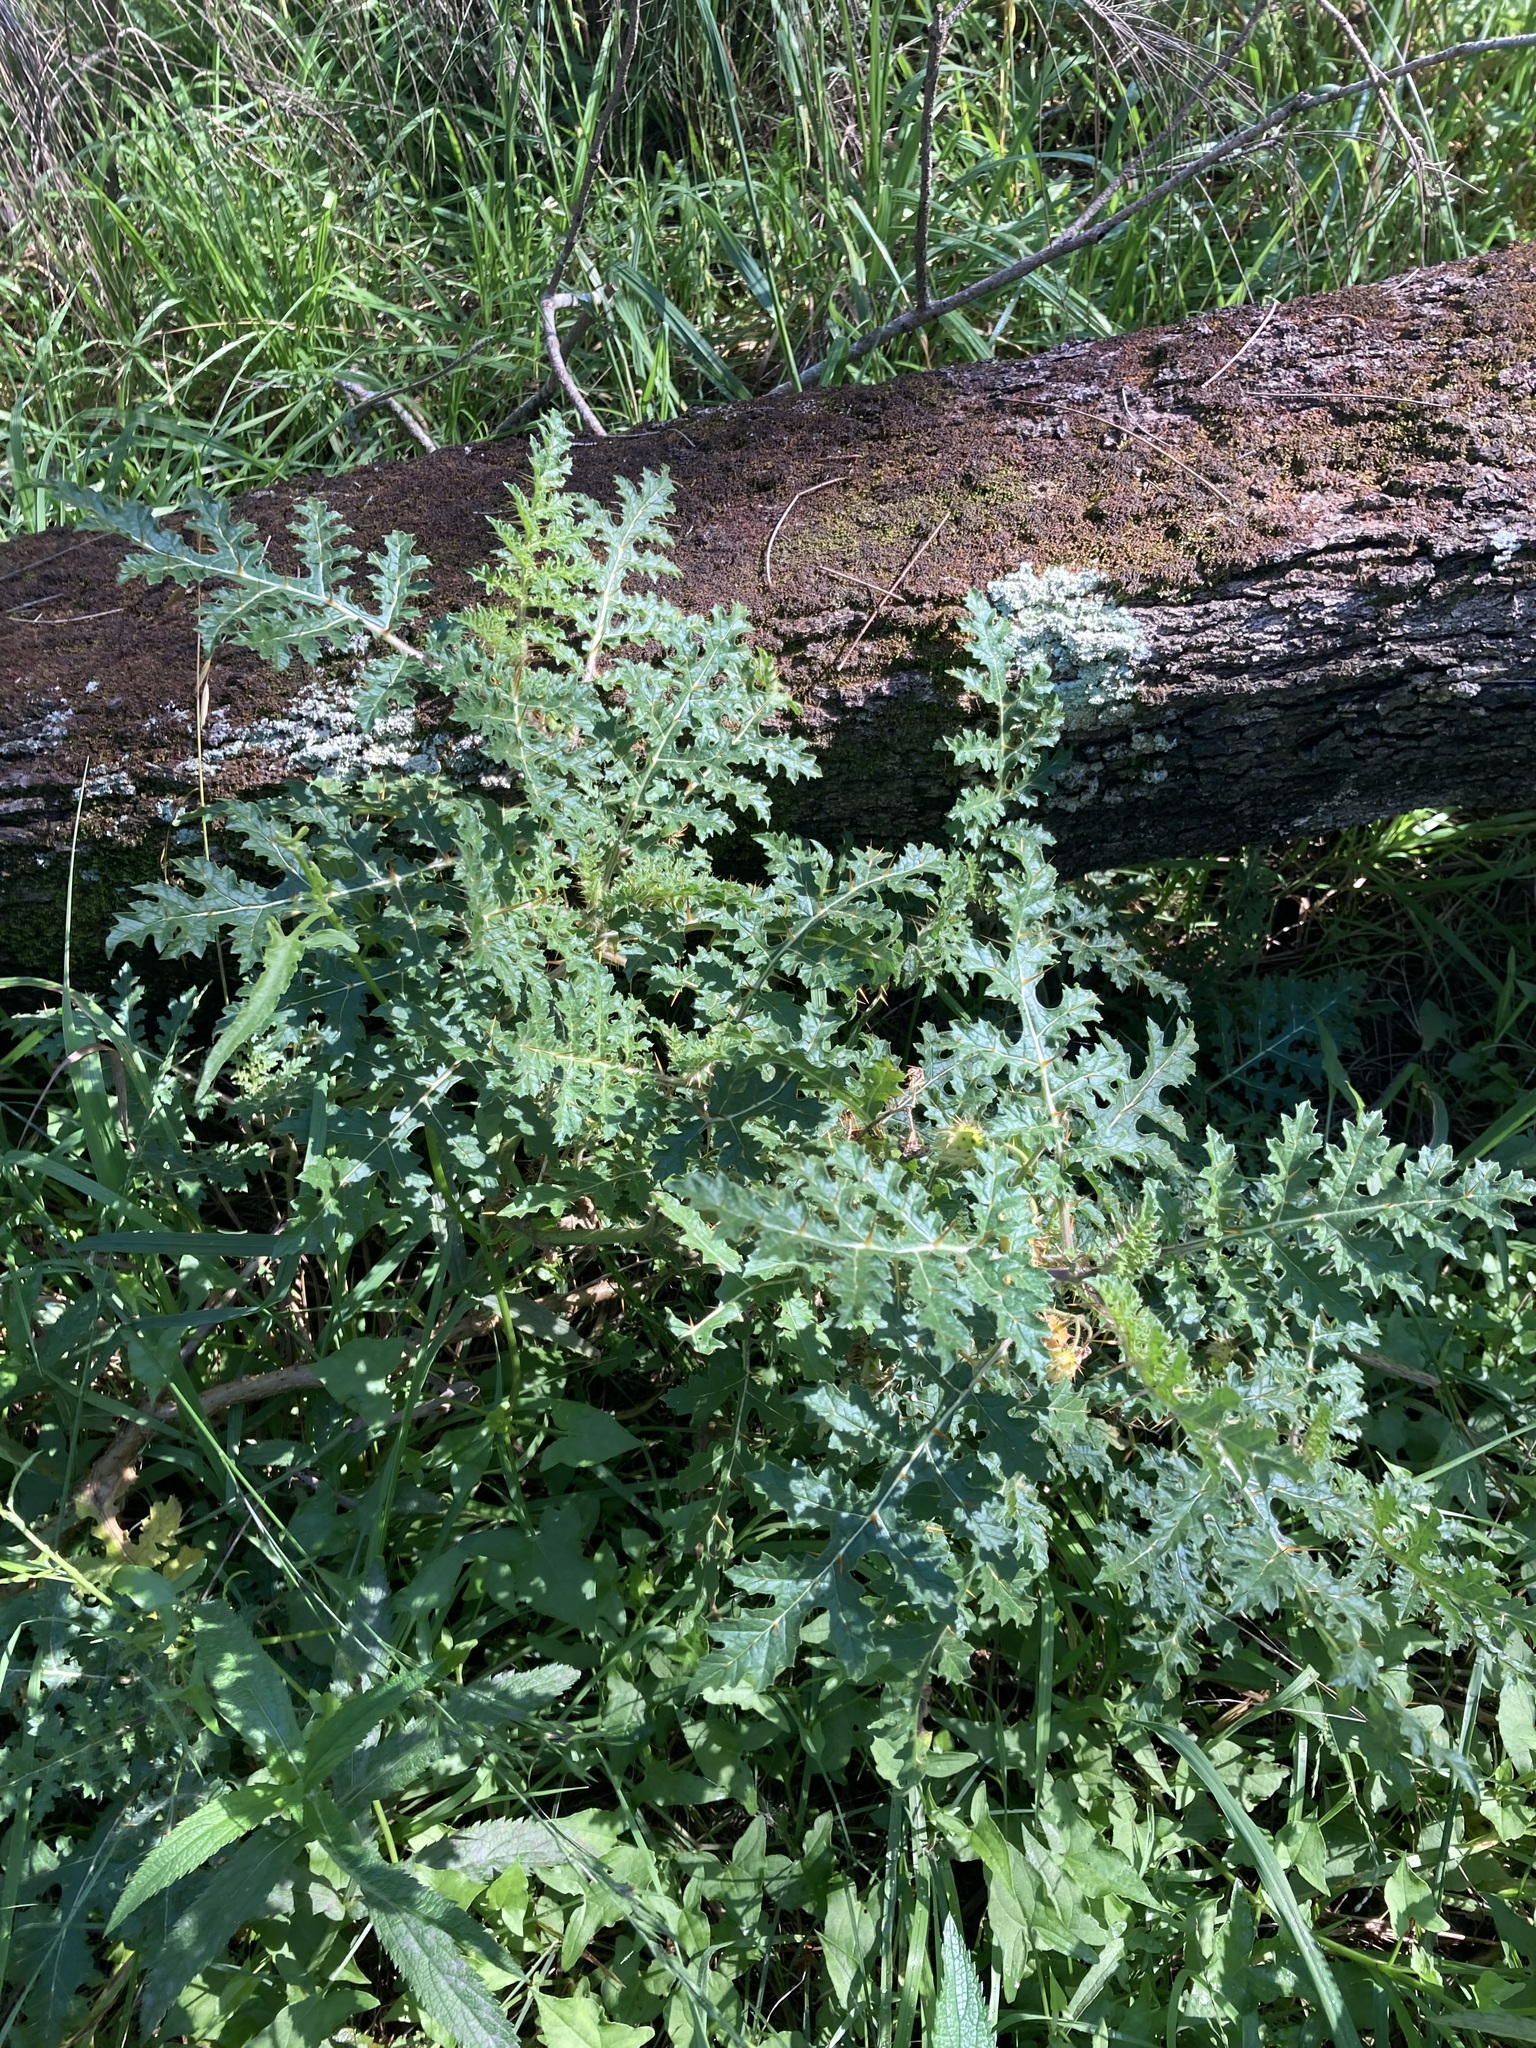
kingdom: Plantae
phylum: Tracheophyta
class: Magnoliopsida
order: Solanales
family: Solanaceae
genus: Solanum
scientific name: Solanum sisymbriifolium
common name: Red buffalo-bur
